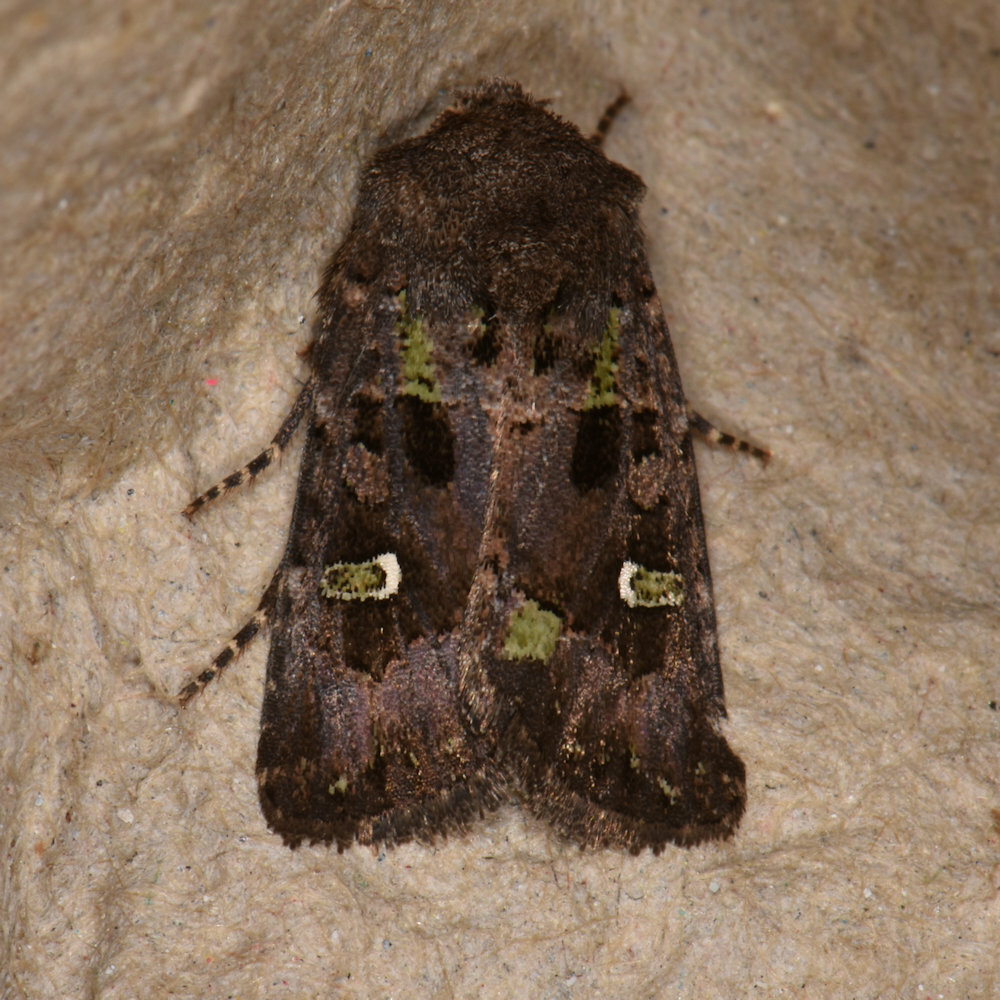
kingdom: Animalia
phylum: Arthropoda
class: Insecta
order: Lepidoptera
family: Noctuidae
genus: Lacinipolia
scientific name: Lacinipolia renigera
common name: Kidney-spotted minor
